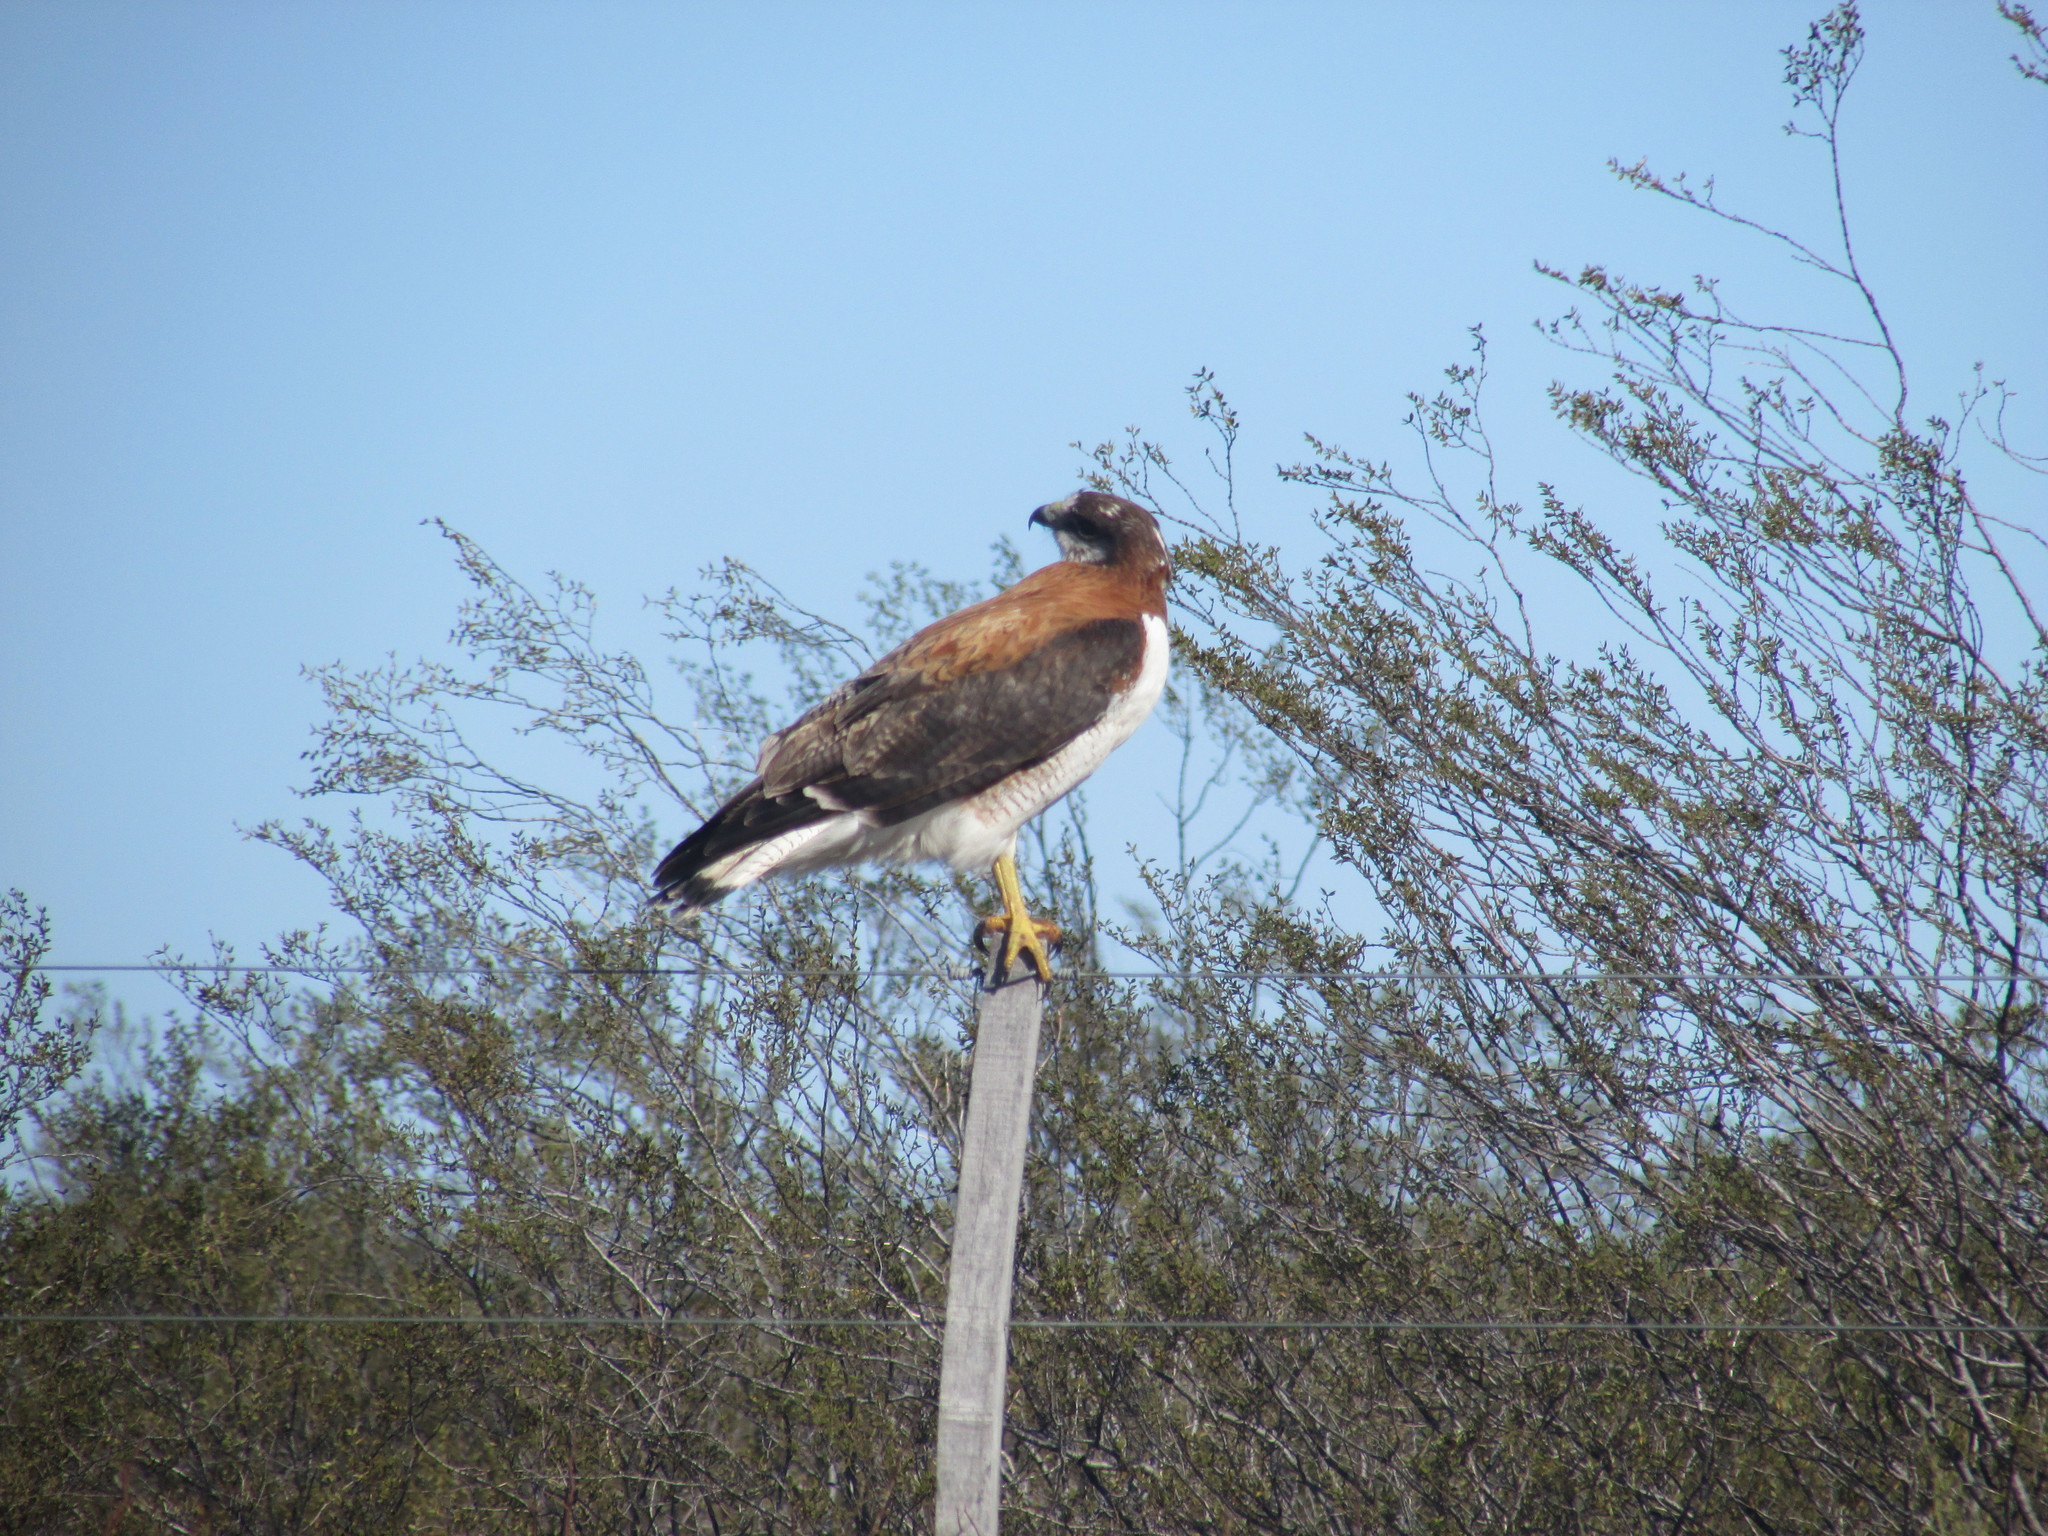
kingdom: Animalia
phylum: Chordata
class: Aves
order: Accipitriformes
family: Accipitridae
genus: Buteo
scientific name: Buteo polyosoma
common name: Variable hawk
